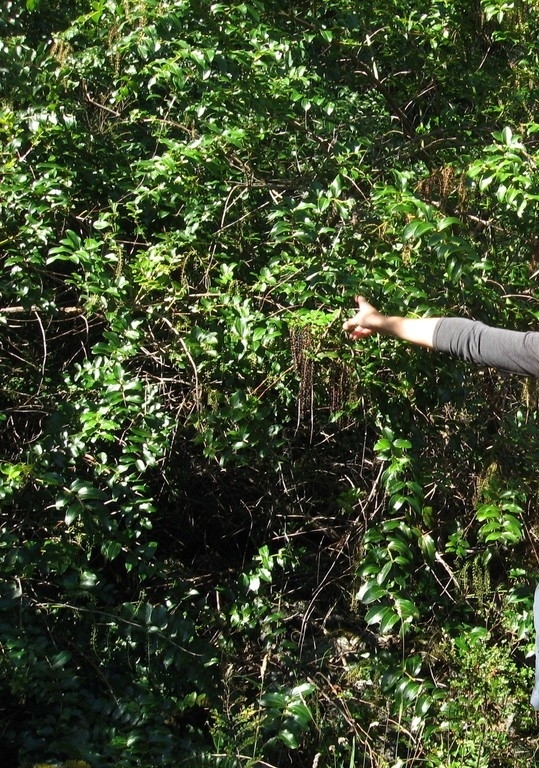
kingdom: Plantae
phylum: Tracheophyta
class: Magnoliopsida
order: Cucurbitales
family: Coriariaceae
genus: Coriaria
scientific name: Coriaria arborea
